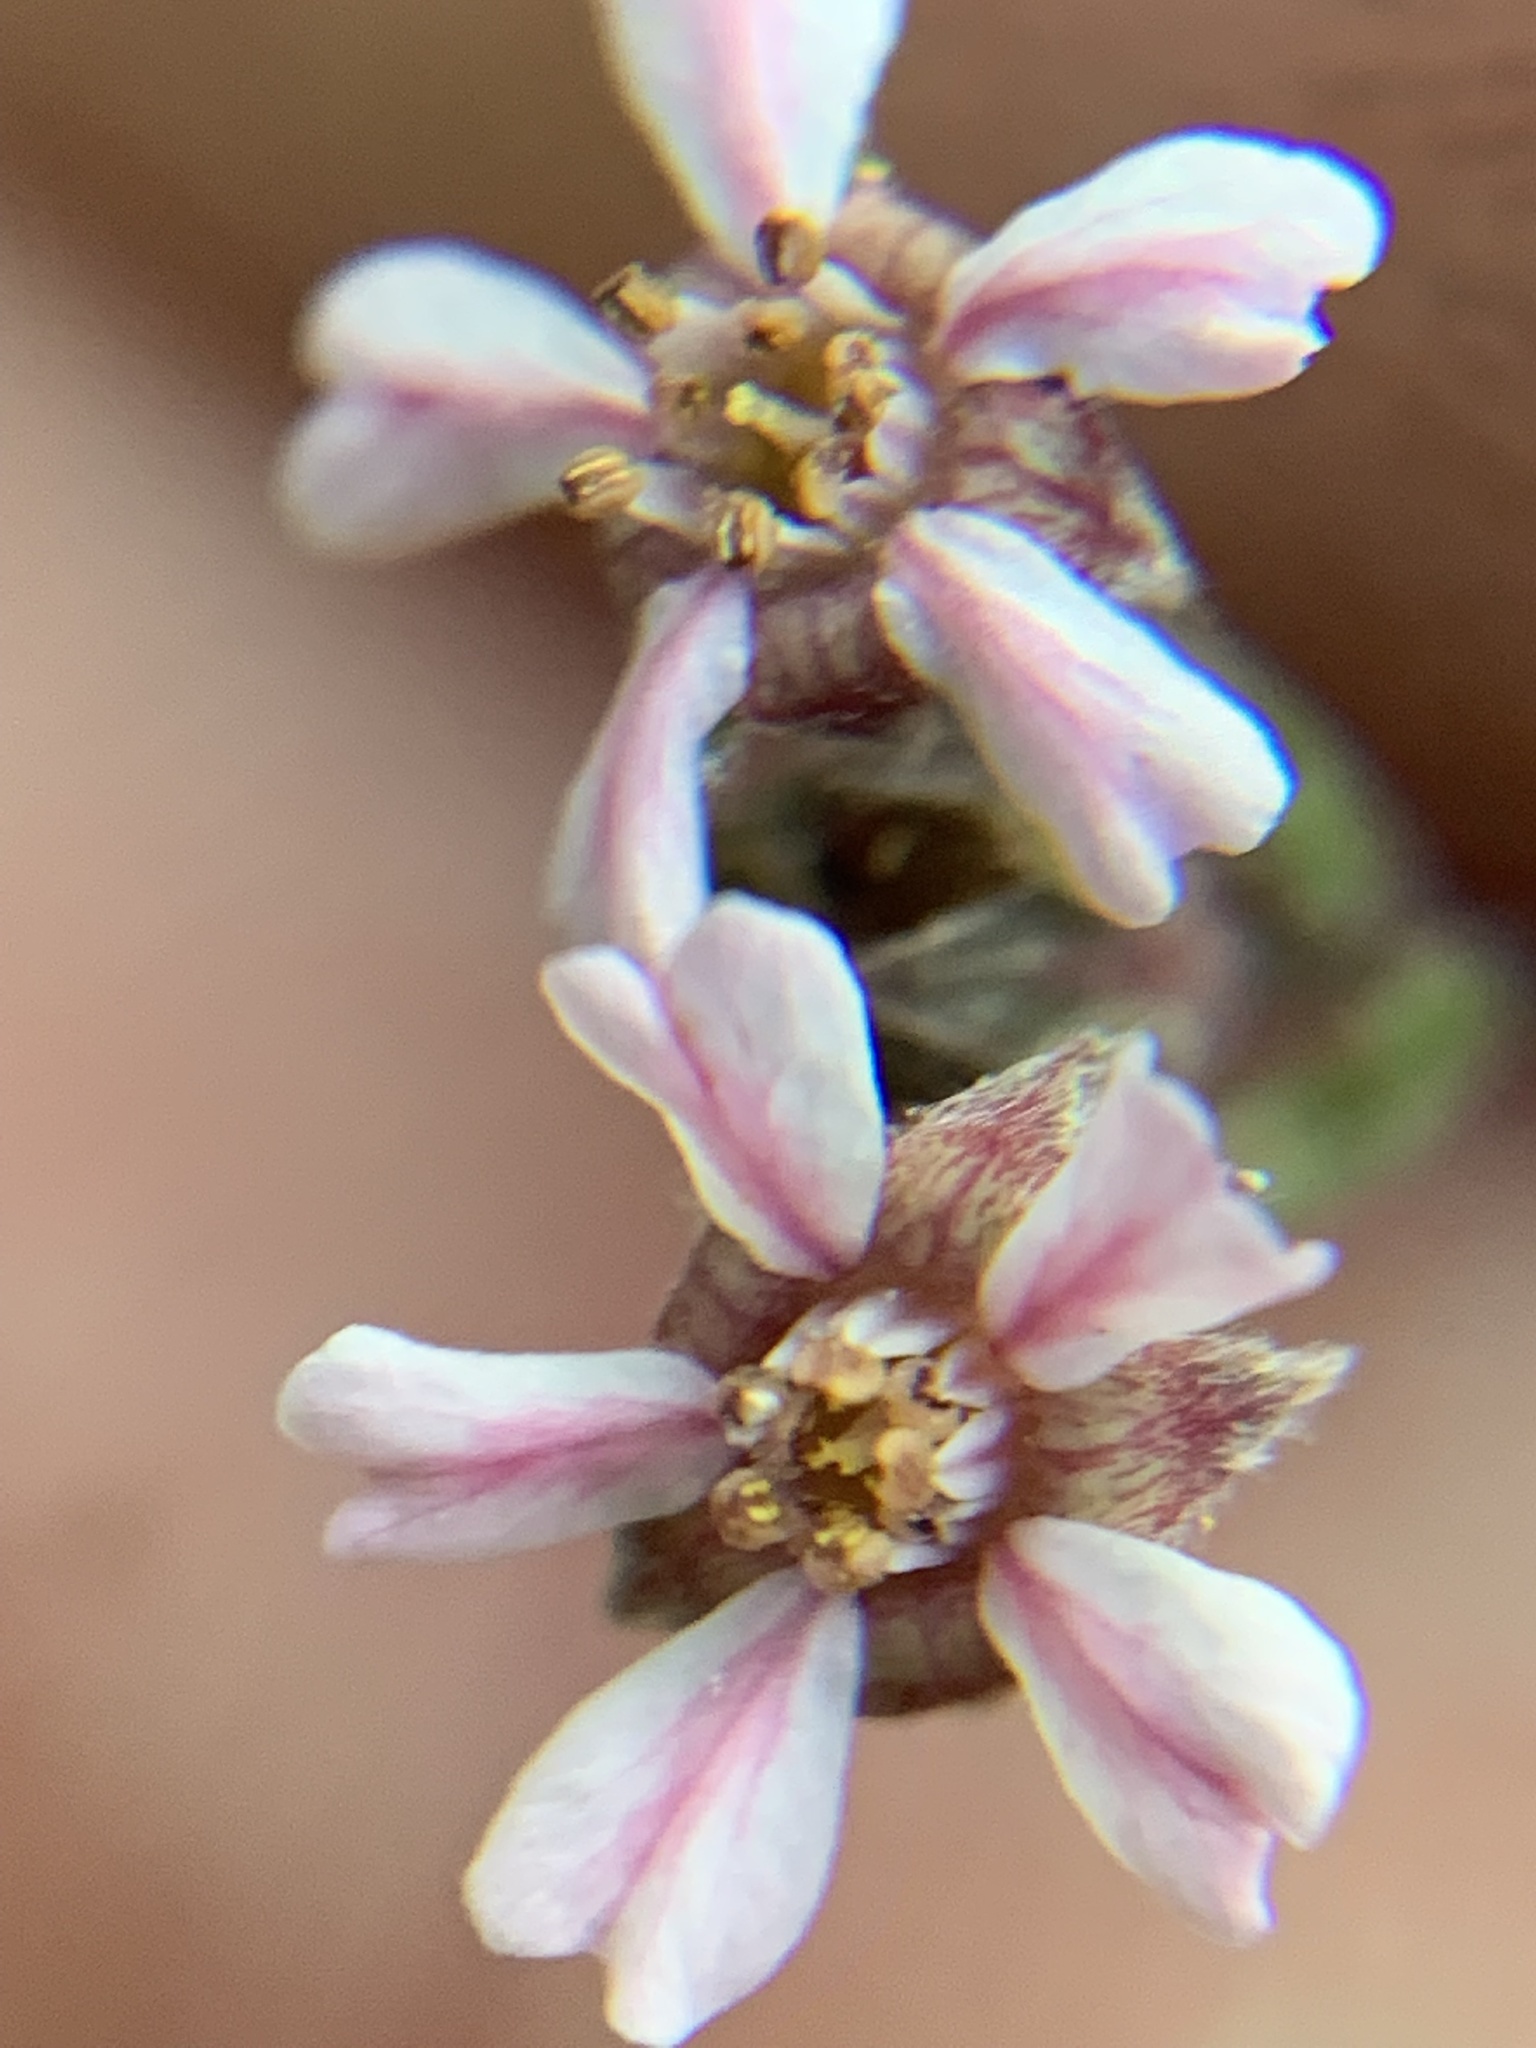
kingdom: Plantae
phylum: Tracheophyta
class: Magnoliopsida
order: Rosales
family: Rosaceae
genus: Potentilla
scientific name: Potentilla howellii
